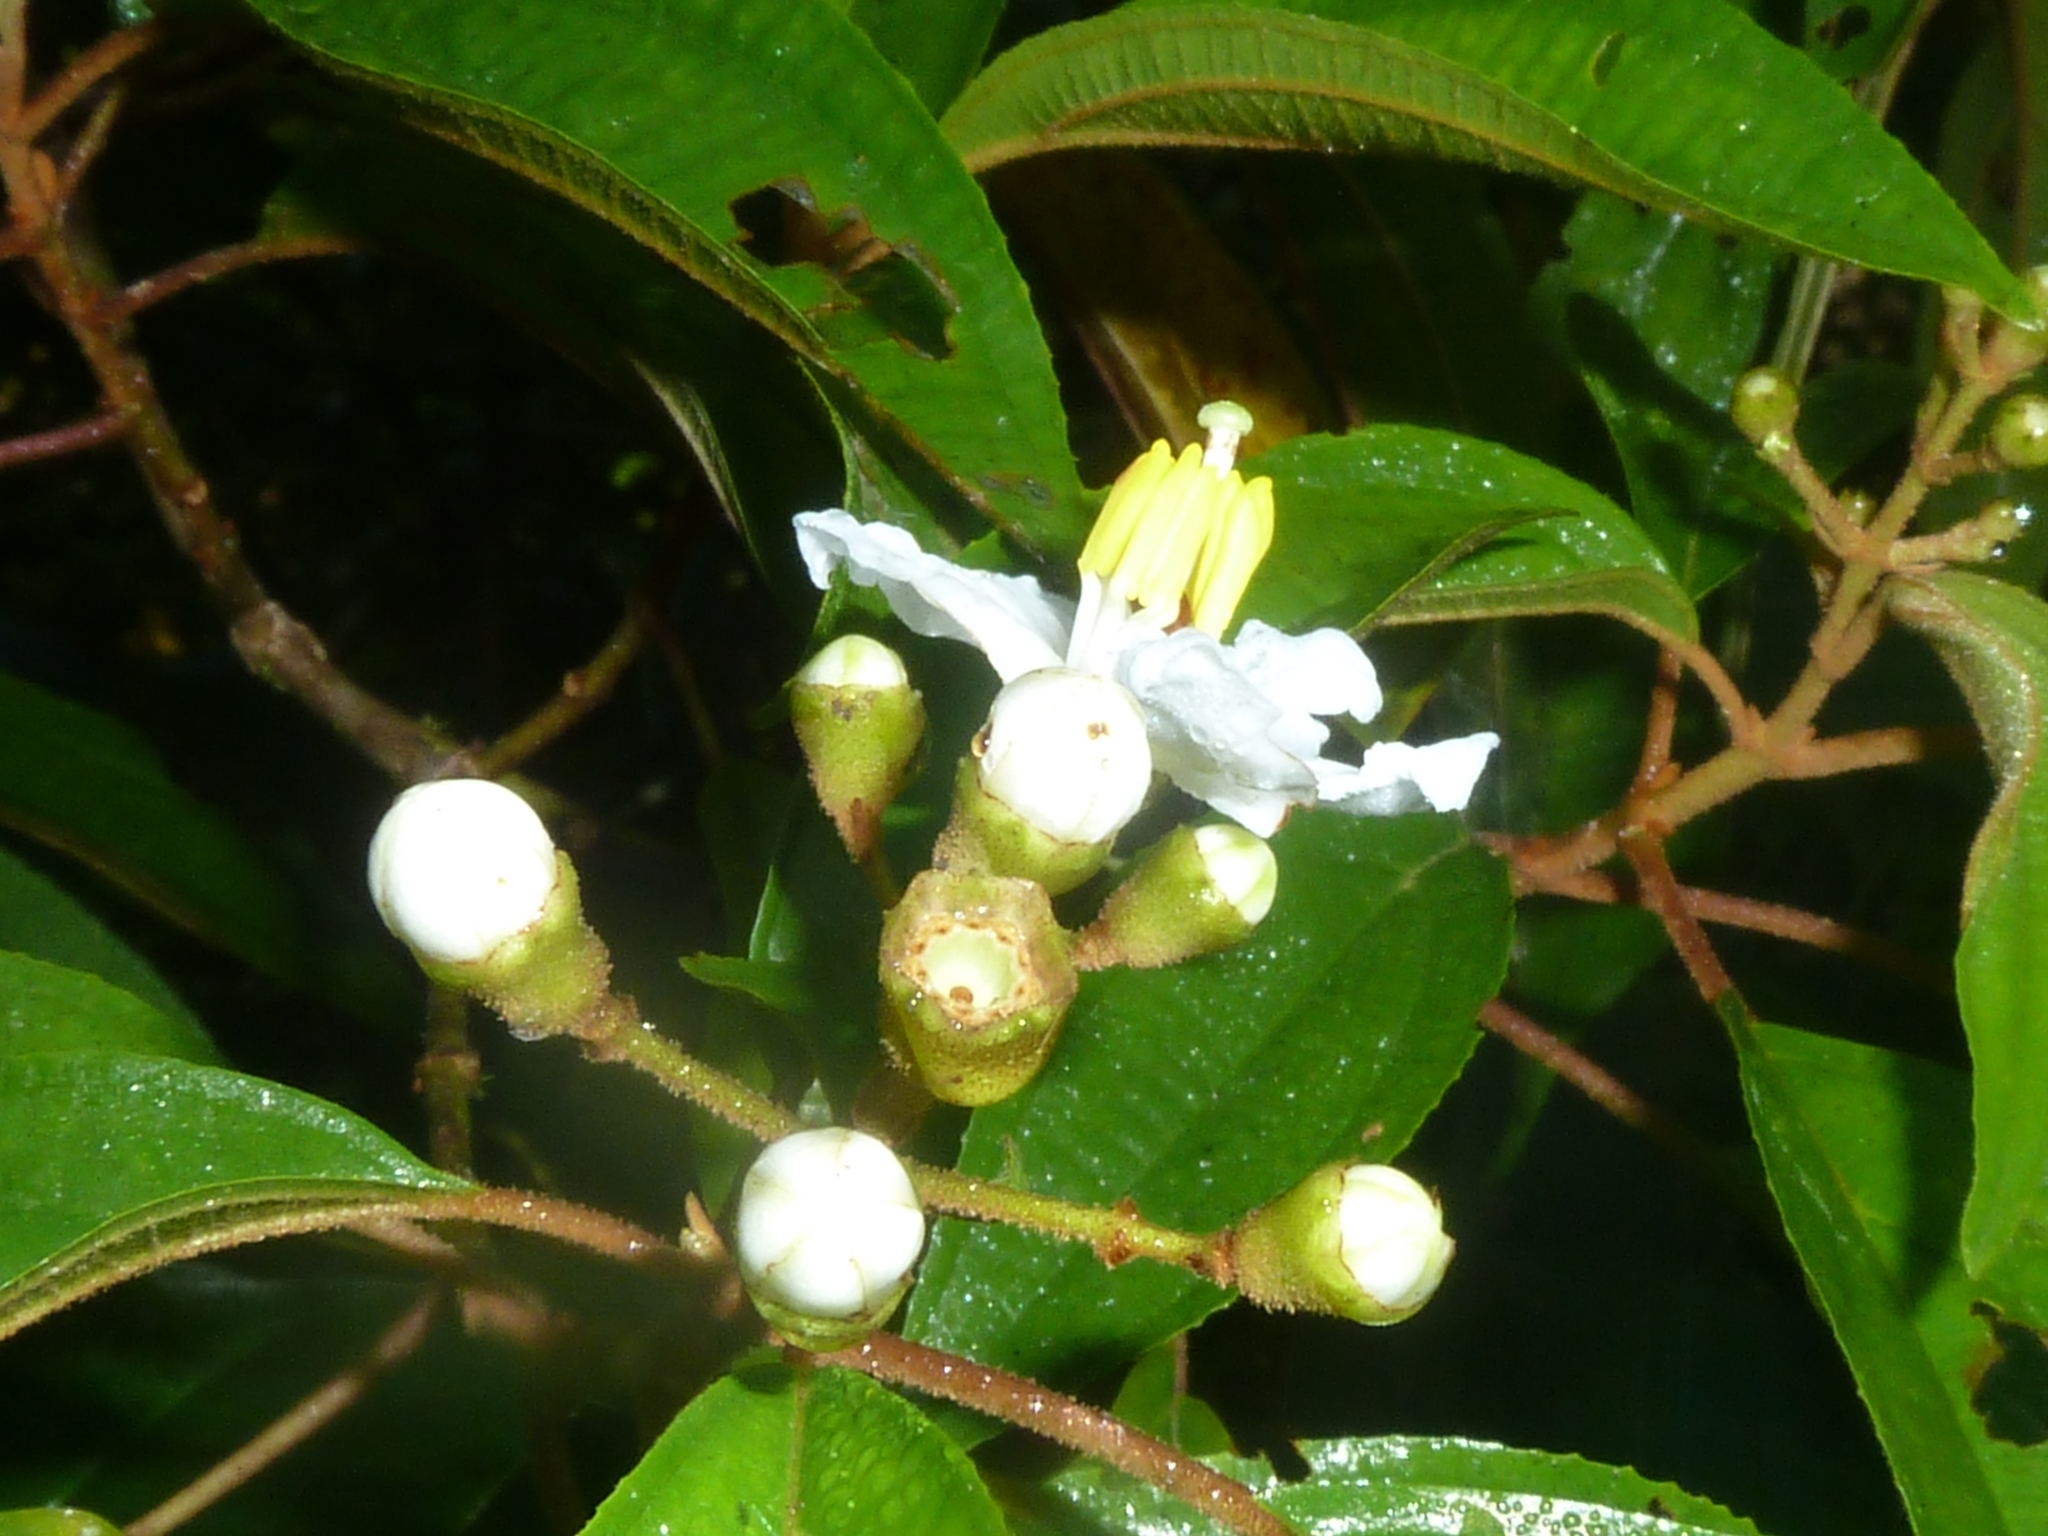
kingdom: Plantae
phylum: Tracheophyta
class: Magnoliopsida
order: Myrtales
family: Melastomataceae
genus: Miconia
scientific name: Miconia schlimii
